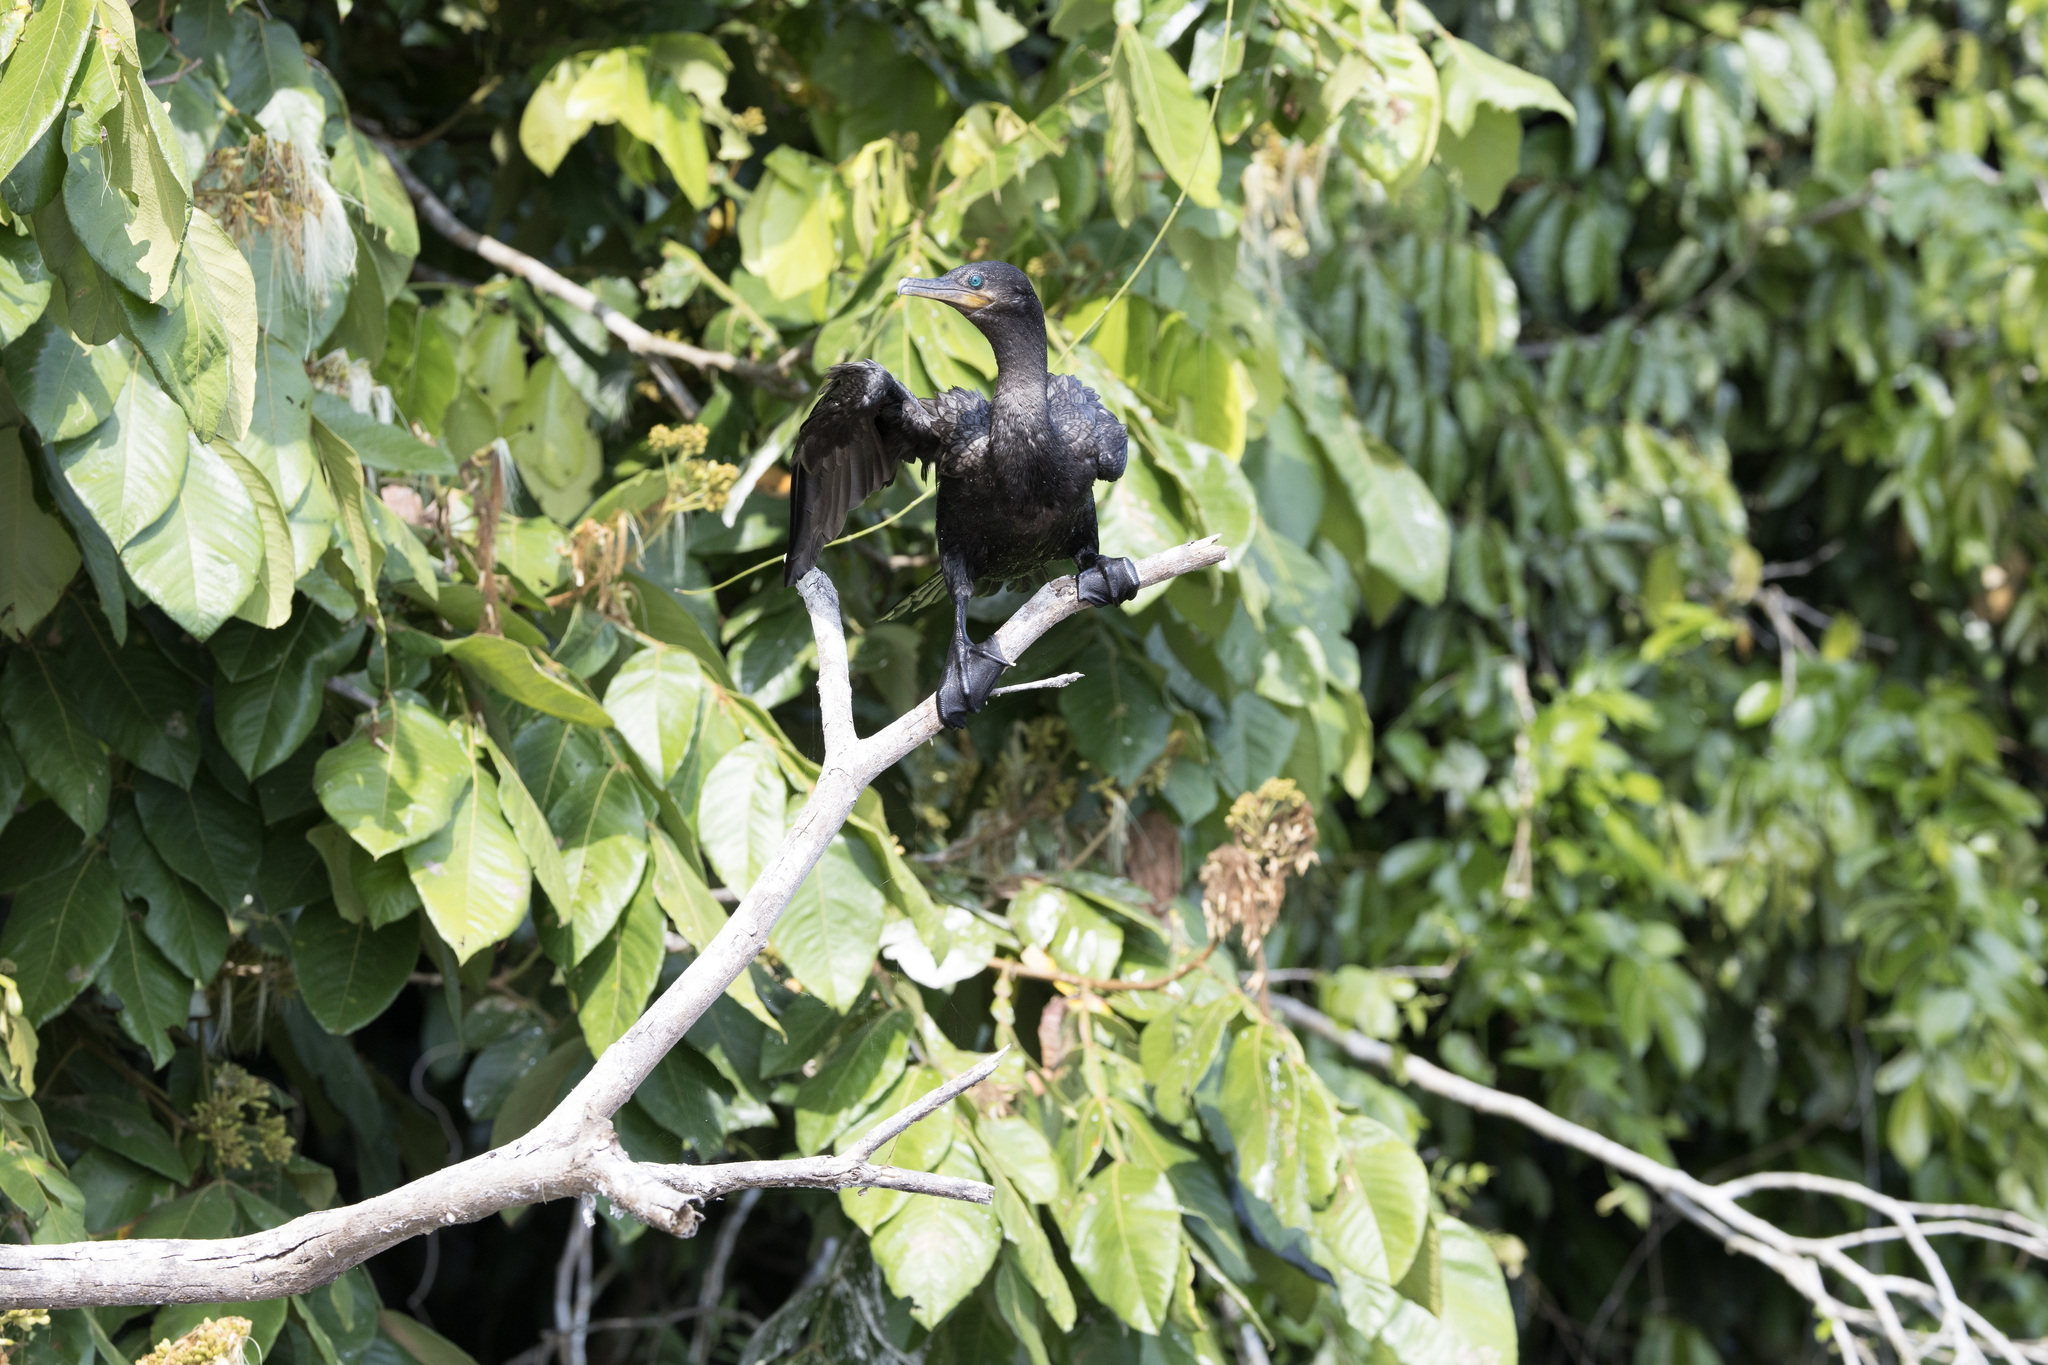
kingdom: Animalia
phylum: Chordata
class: Aves
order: Suliformes
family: Phalacrocoracidae
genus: Phalacrocorax
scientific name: Phalacrocorax brasilianus
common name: Neotropic cormorant
